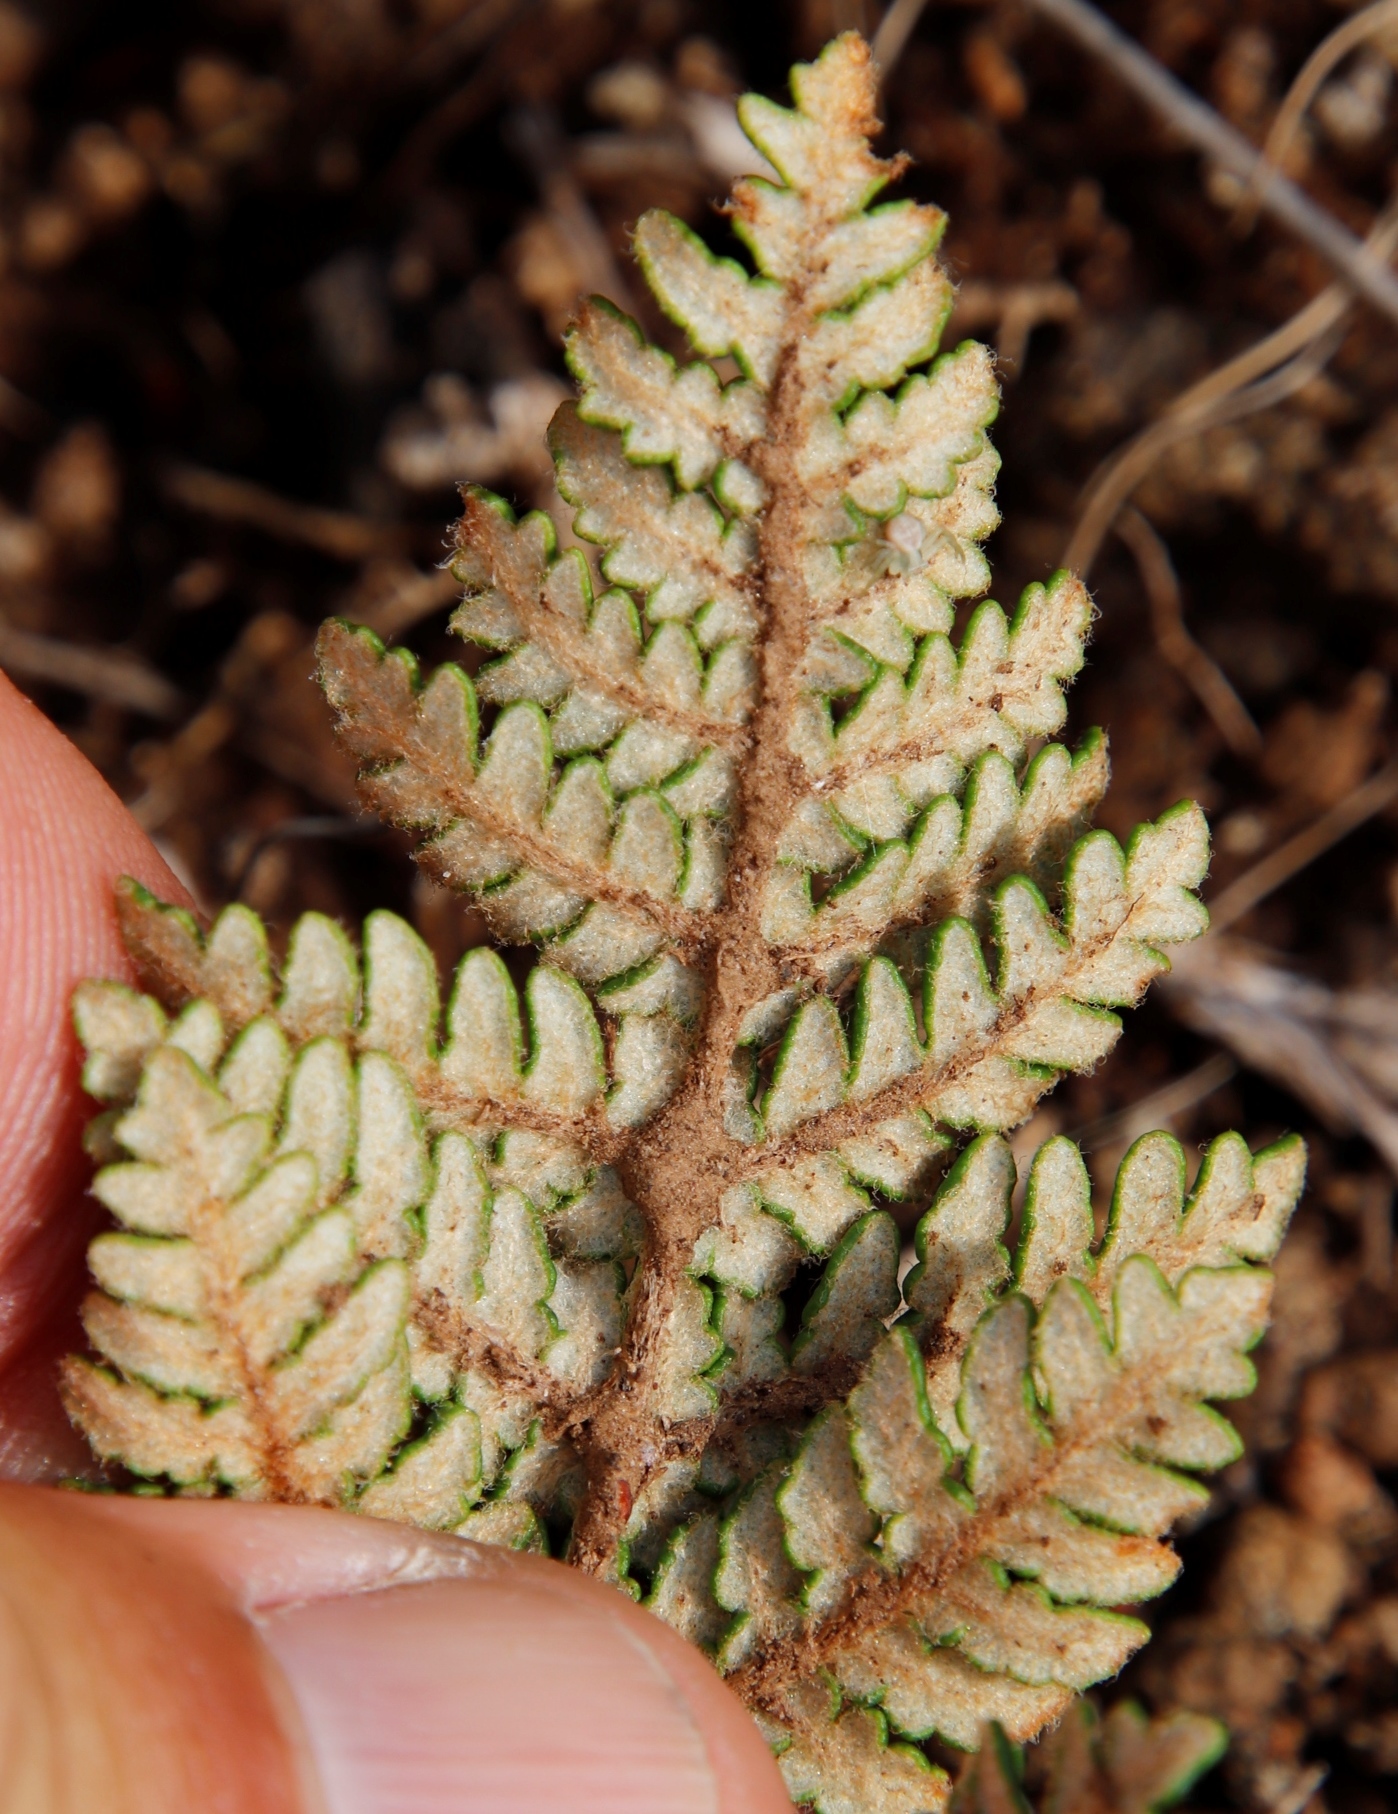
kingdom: Plantae
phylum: Tracheophyta
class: Polypodiopsida
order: Polypodiales
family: Pteridaceae
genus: Cheilanthes
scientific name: Cheilanthes eckloniana
